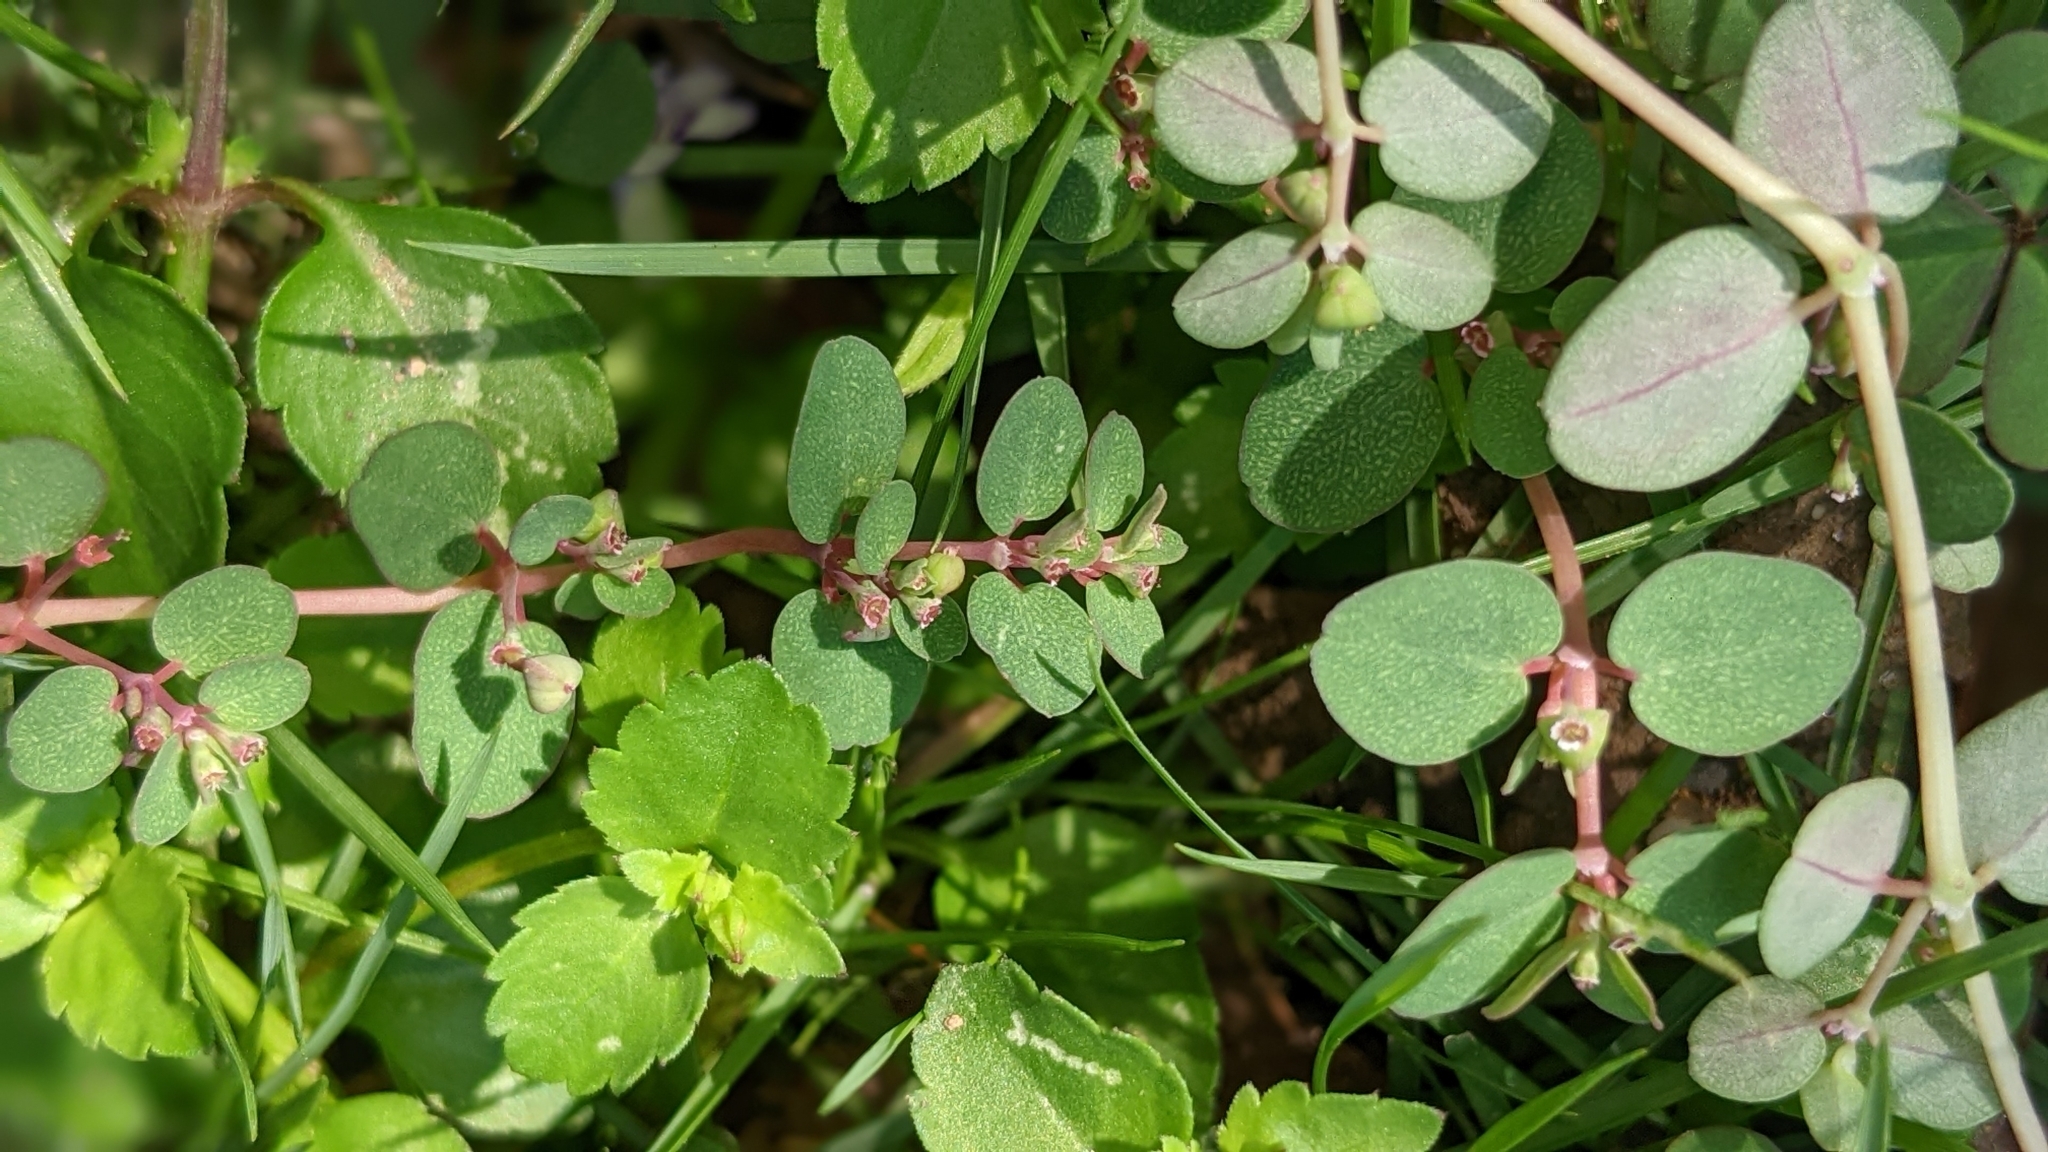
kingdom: Plantae
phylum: Tracheophyta
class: Magnoliopsida
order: Malpighiales
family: Euphorbiaceae
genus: Euphorbia
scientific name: Euphorbia makinoi
